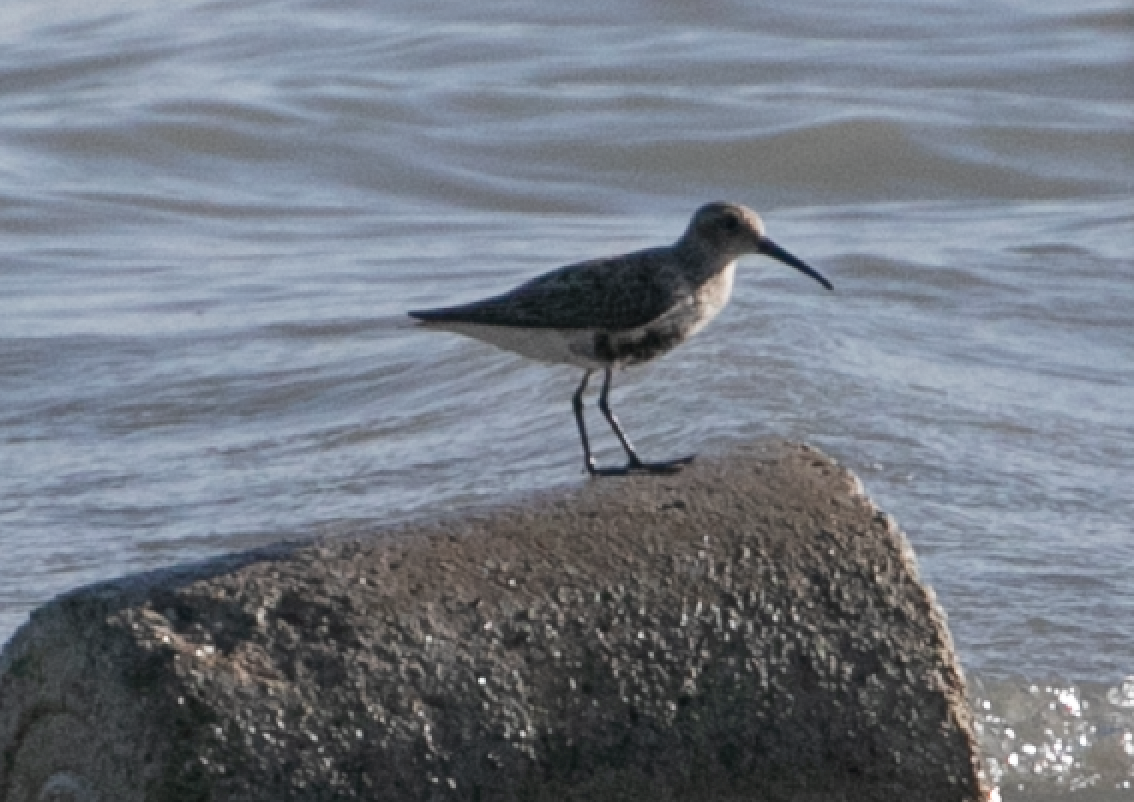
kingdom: Animalia
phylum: Chordata
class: Aves
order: Charadriiformes
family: Scolopacidae
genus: Calidris
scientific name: Calidris alpina
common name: Dunlin
